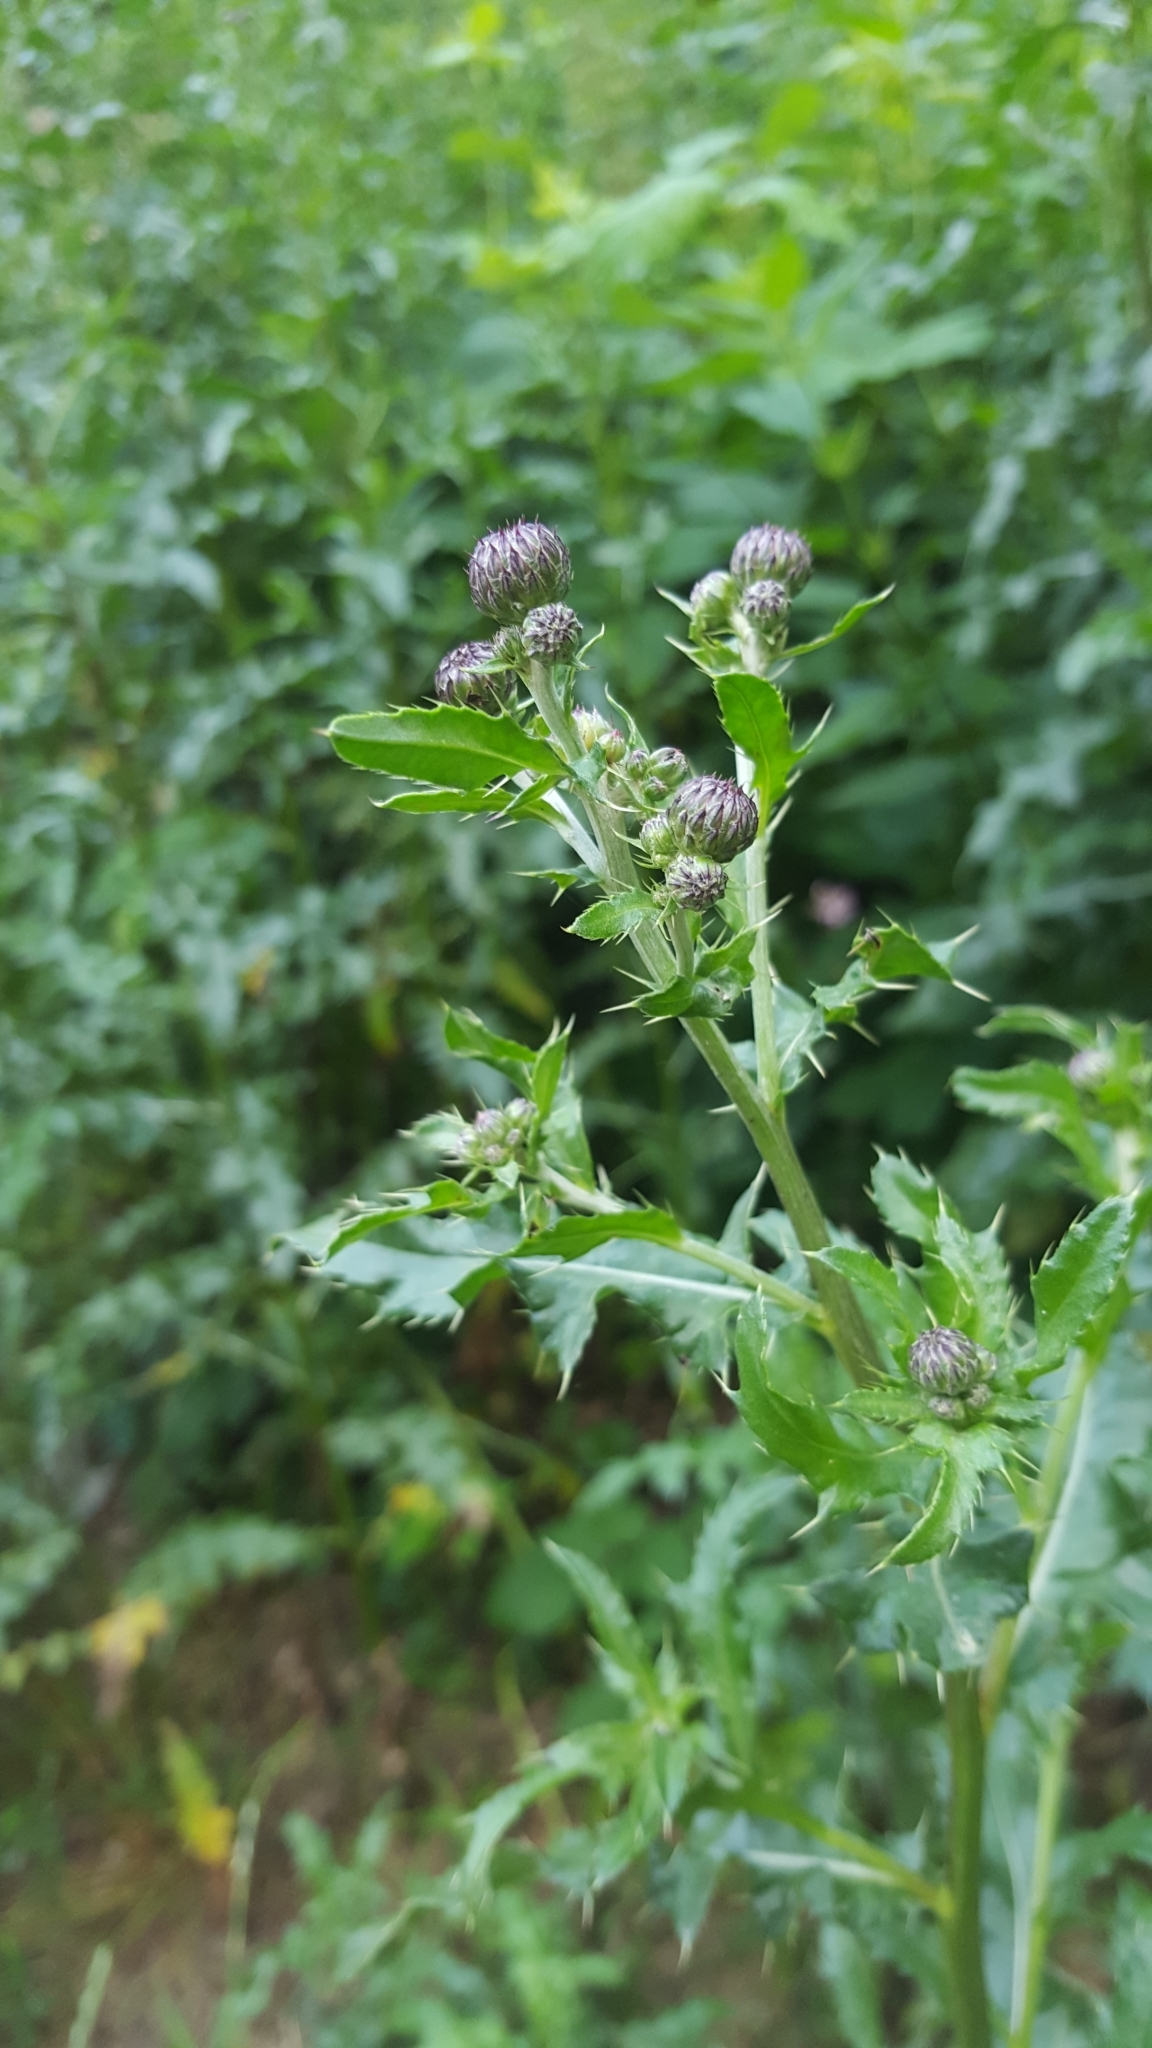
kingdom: Plantae
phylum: Tracheophyta
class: Magnoliopsida
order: Asterales
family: Asteraceae
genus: Cirsium
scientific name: Cirsium arvense
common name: Creeping thistle
